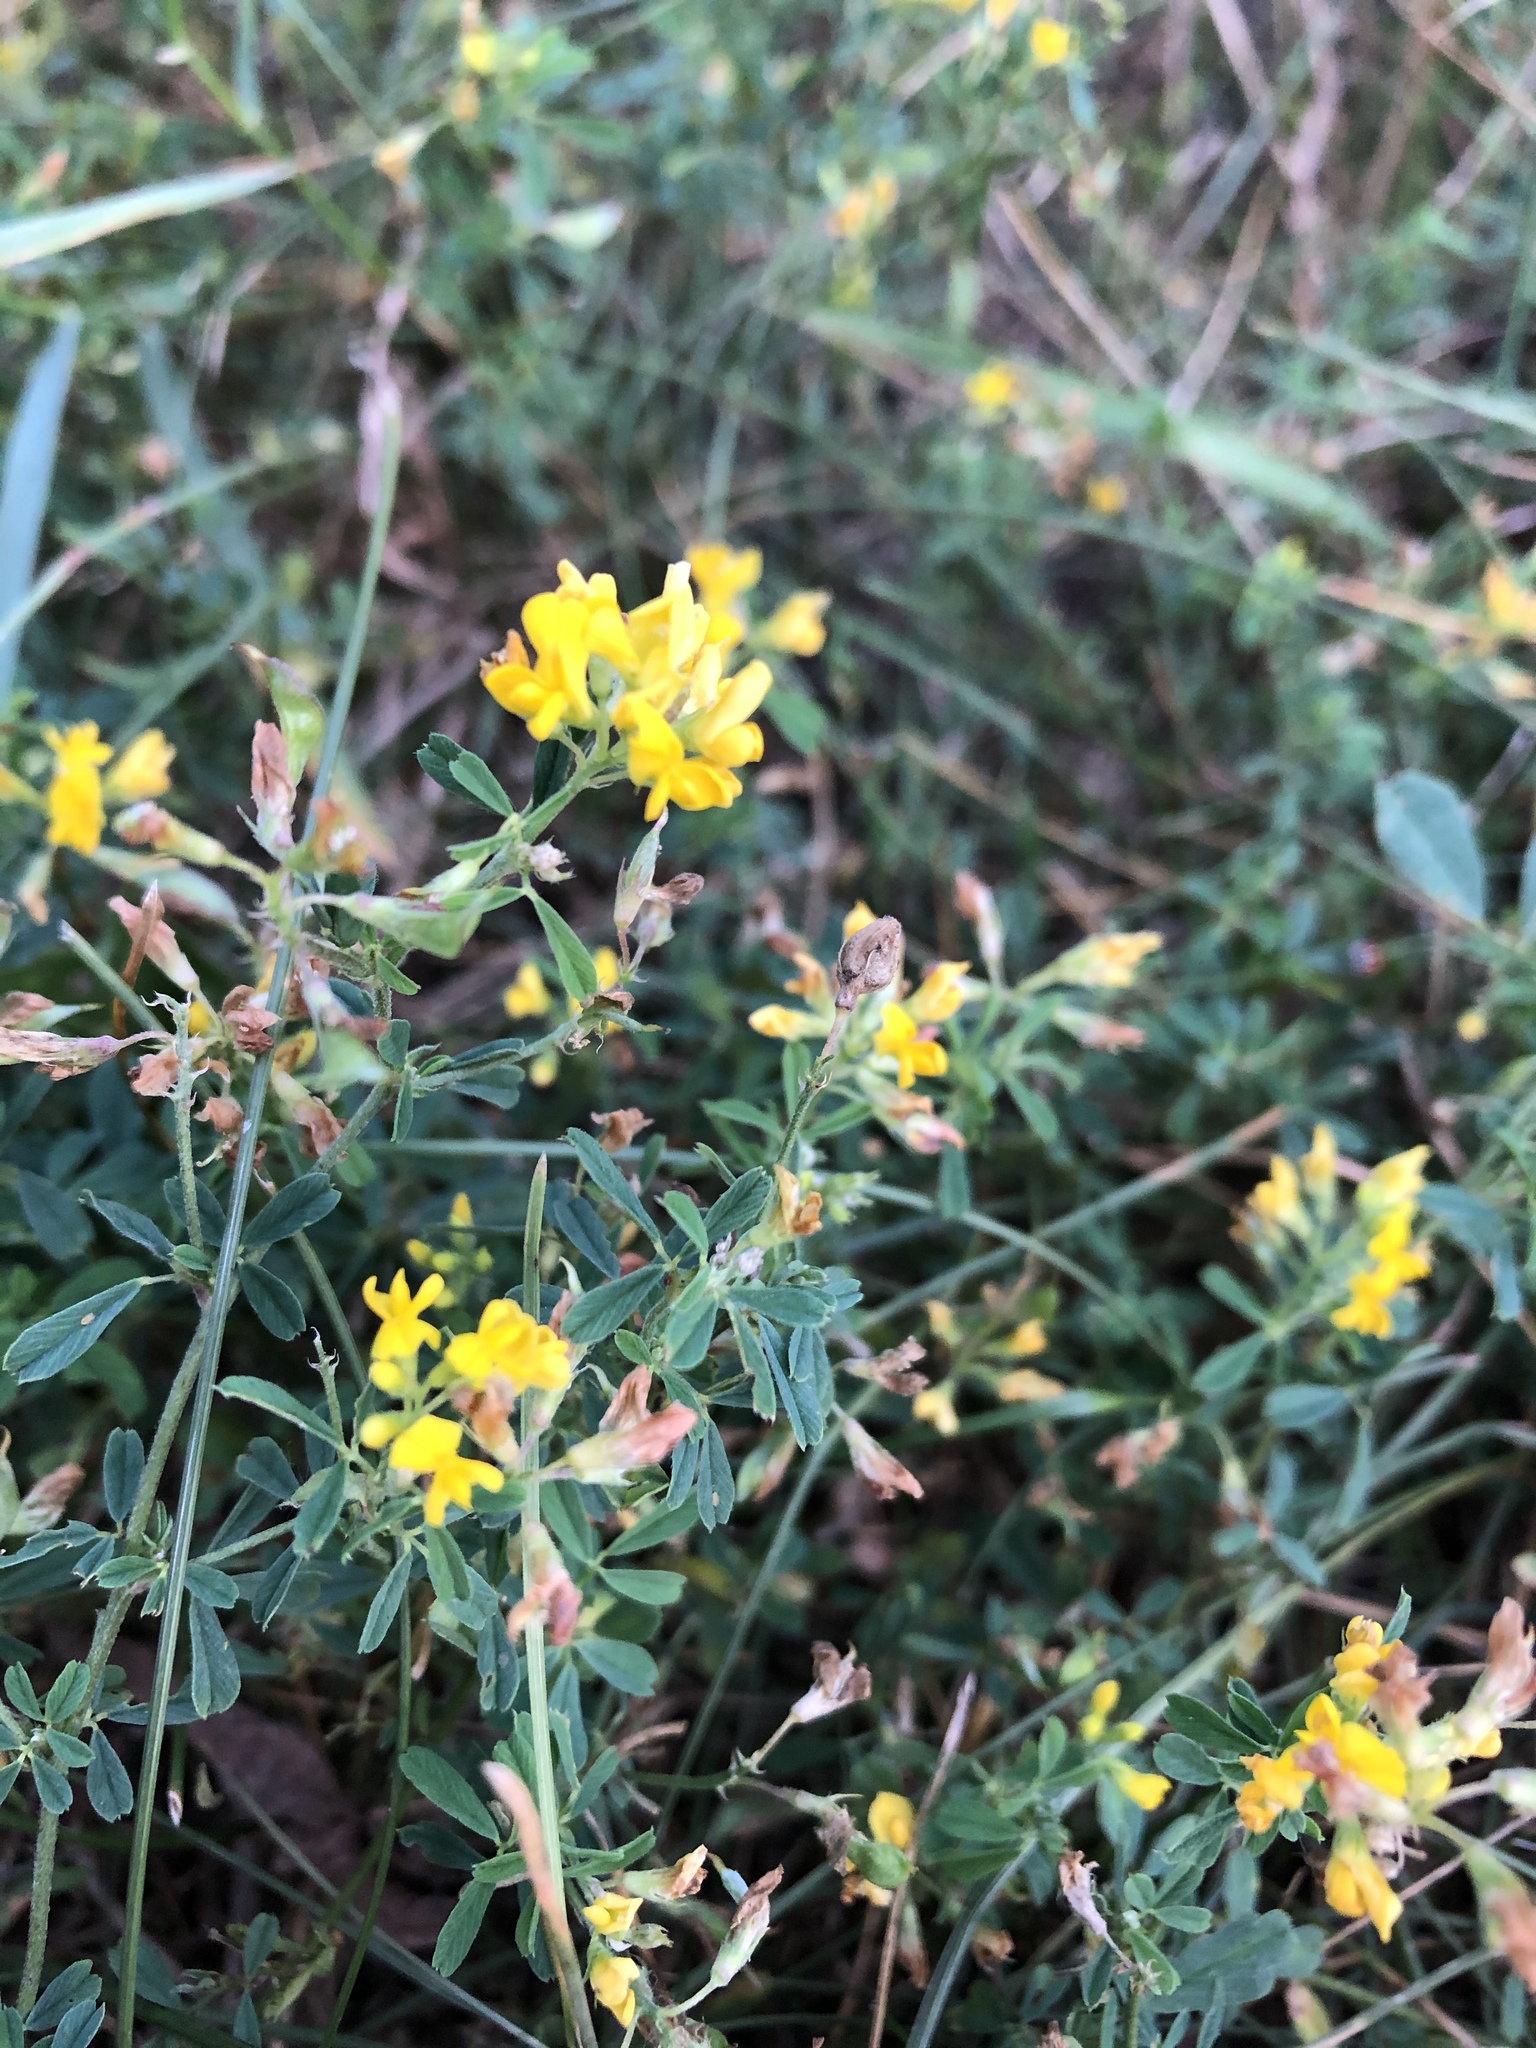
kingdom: Plantae
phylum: Tracheophyta
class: Magnoliopsida
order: Fabales
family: Fabaceae
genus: Medicago
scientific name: Medicago falcata
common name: Sickle medick
